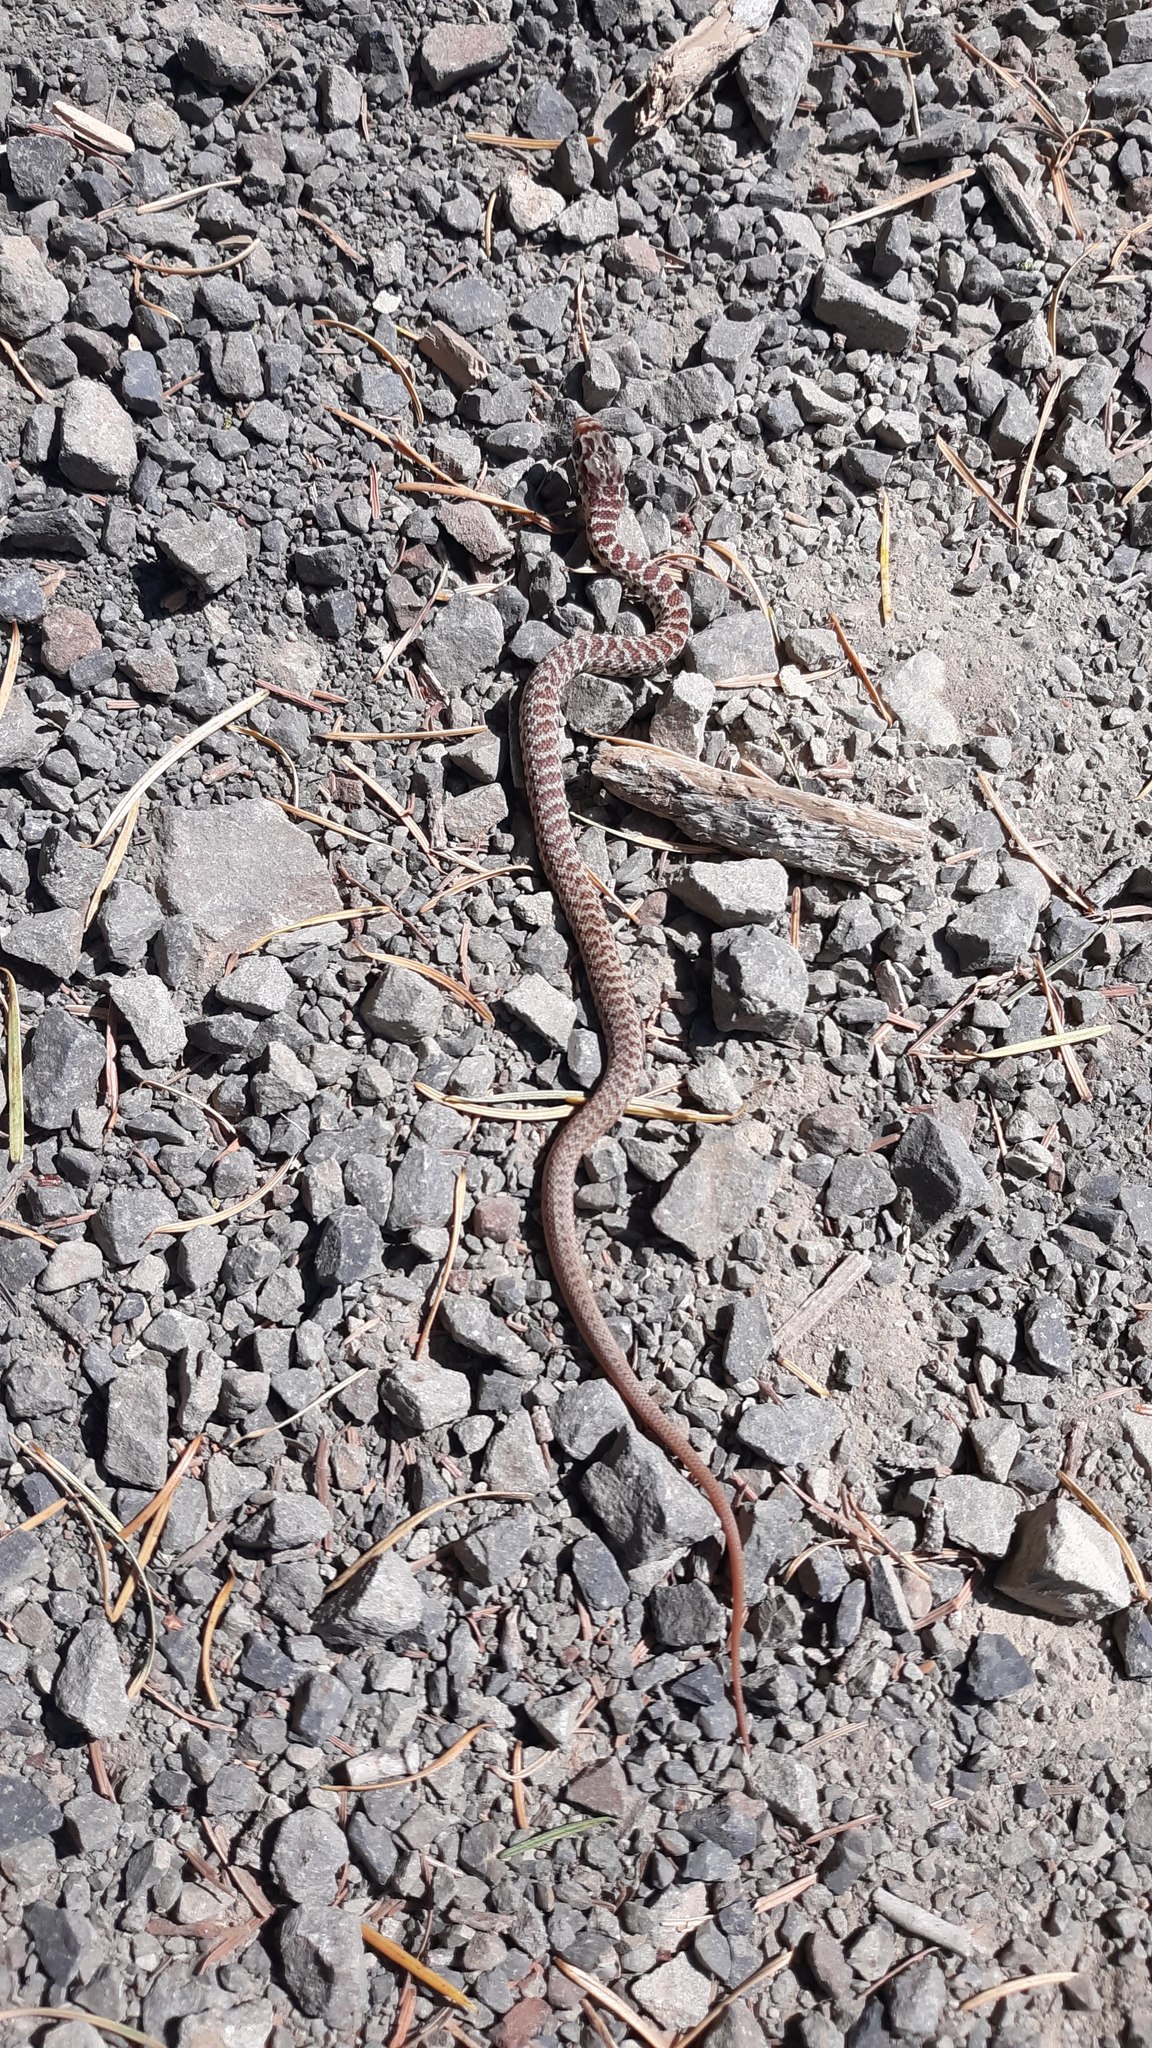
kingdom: Animalia
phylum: Chordata
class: Squamata
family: Colubridae
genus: Coluber
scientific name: Coluber constrictor
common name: Eastern racer
